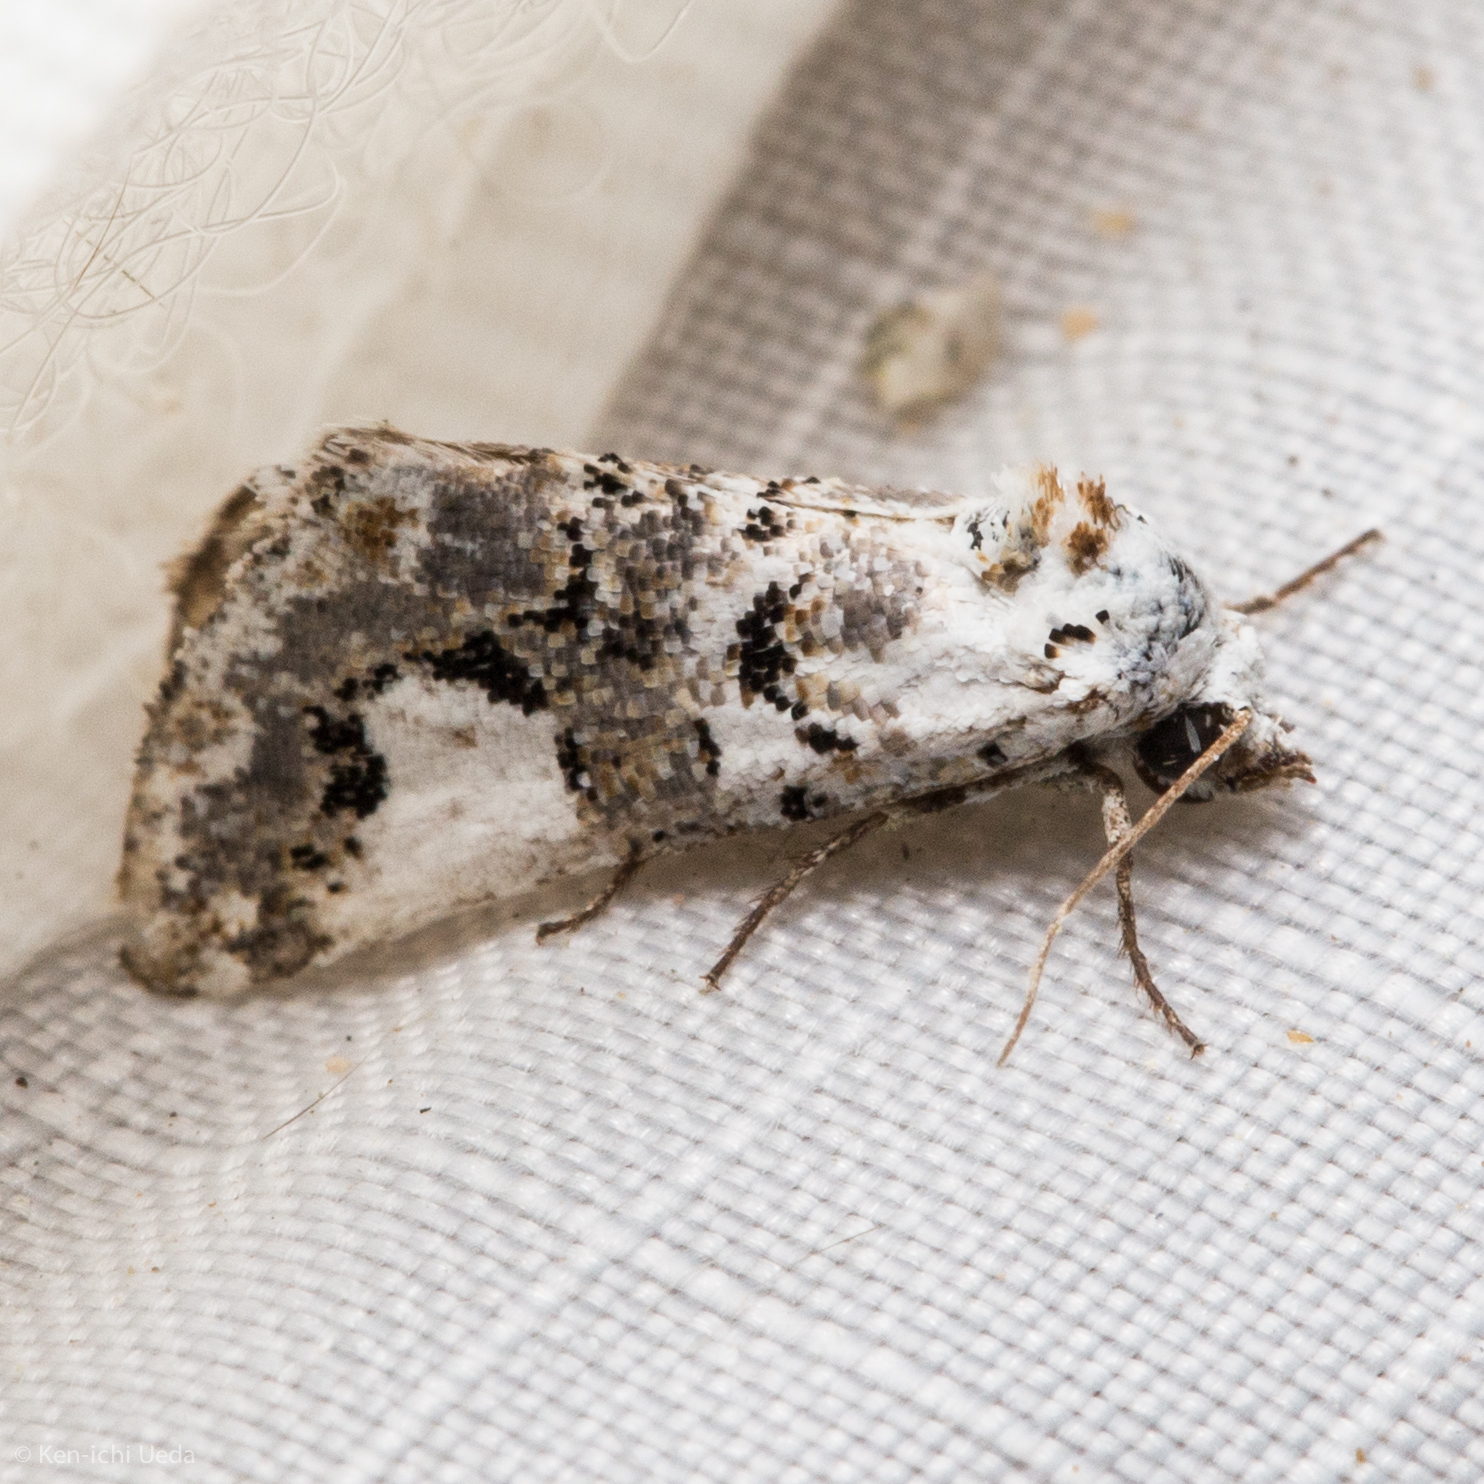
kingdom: Animalia
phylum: Arthropoda
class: Insecta
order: Lepidoptera
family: Noctuidae
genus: Tristyla
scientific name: Tristyla alboplagiata
